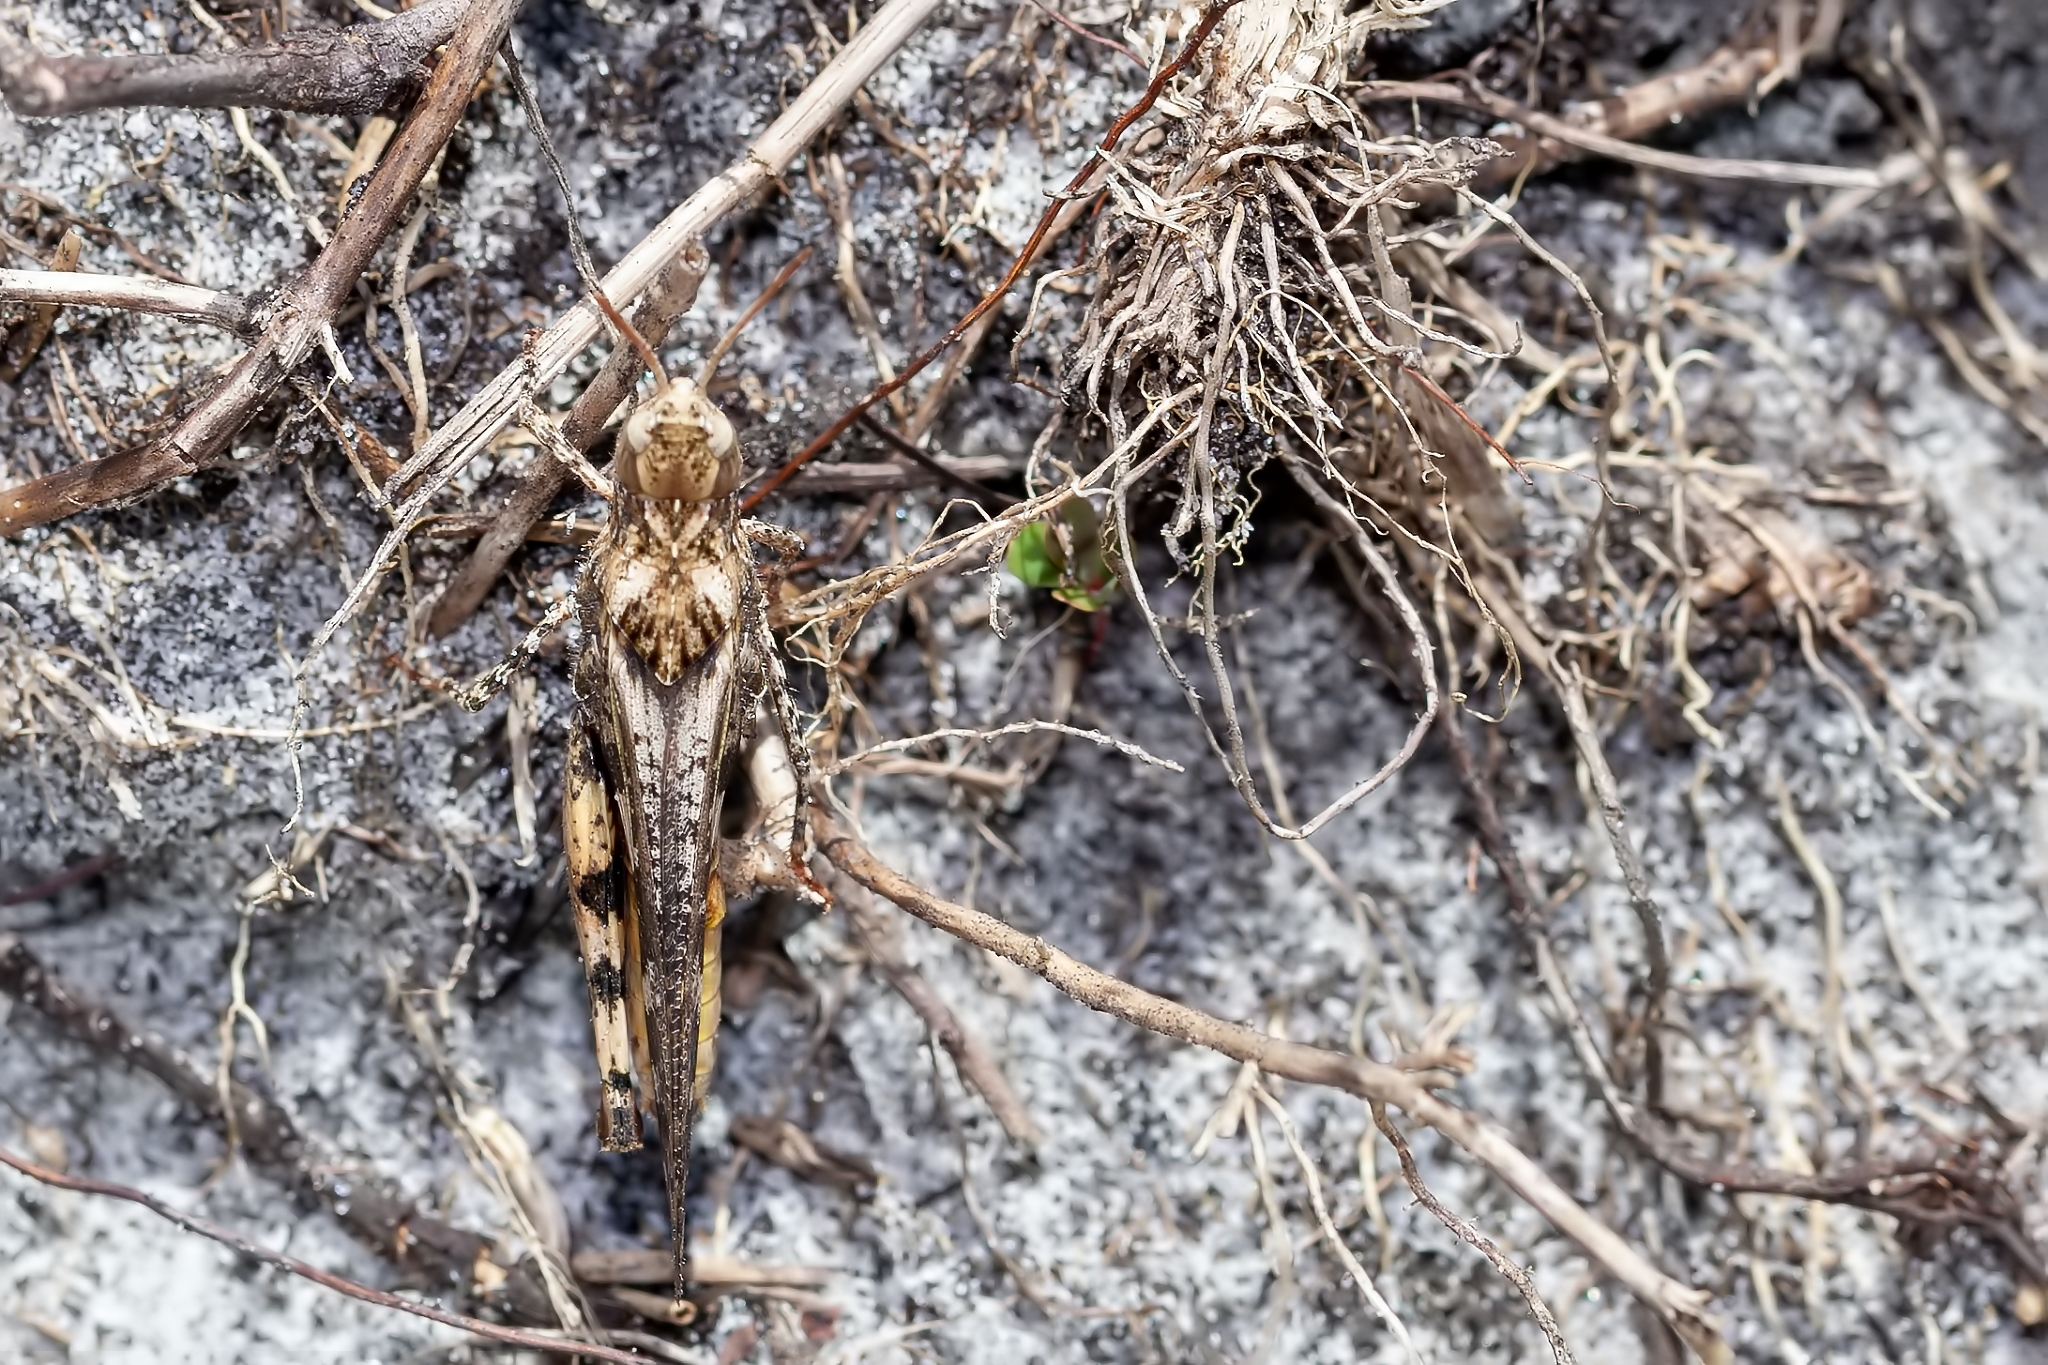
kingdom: Animalia
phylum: Arthropoda
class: Insecta
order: Orthoptera
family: Acrididae
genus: Chortophaga
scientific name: Chortophaga australior
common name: Southern green-striped grasshopper
